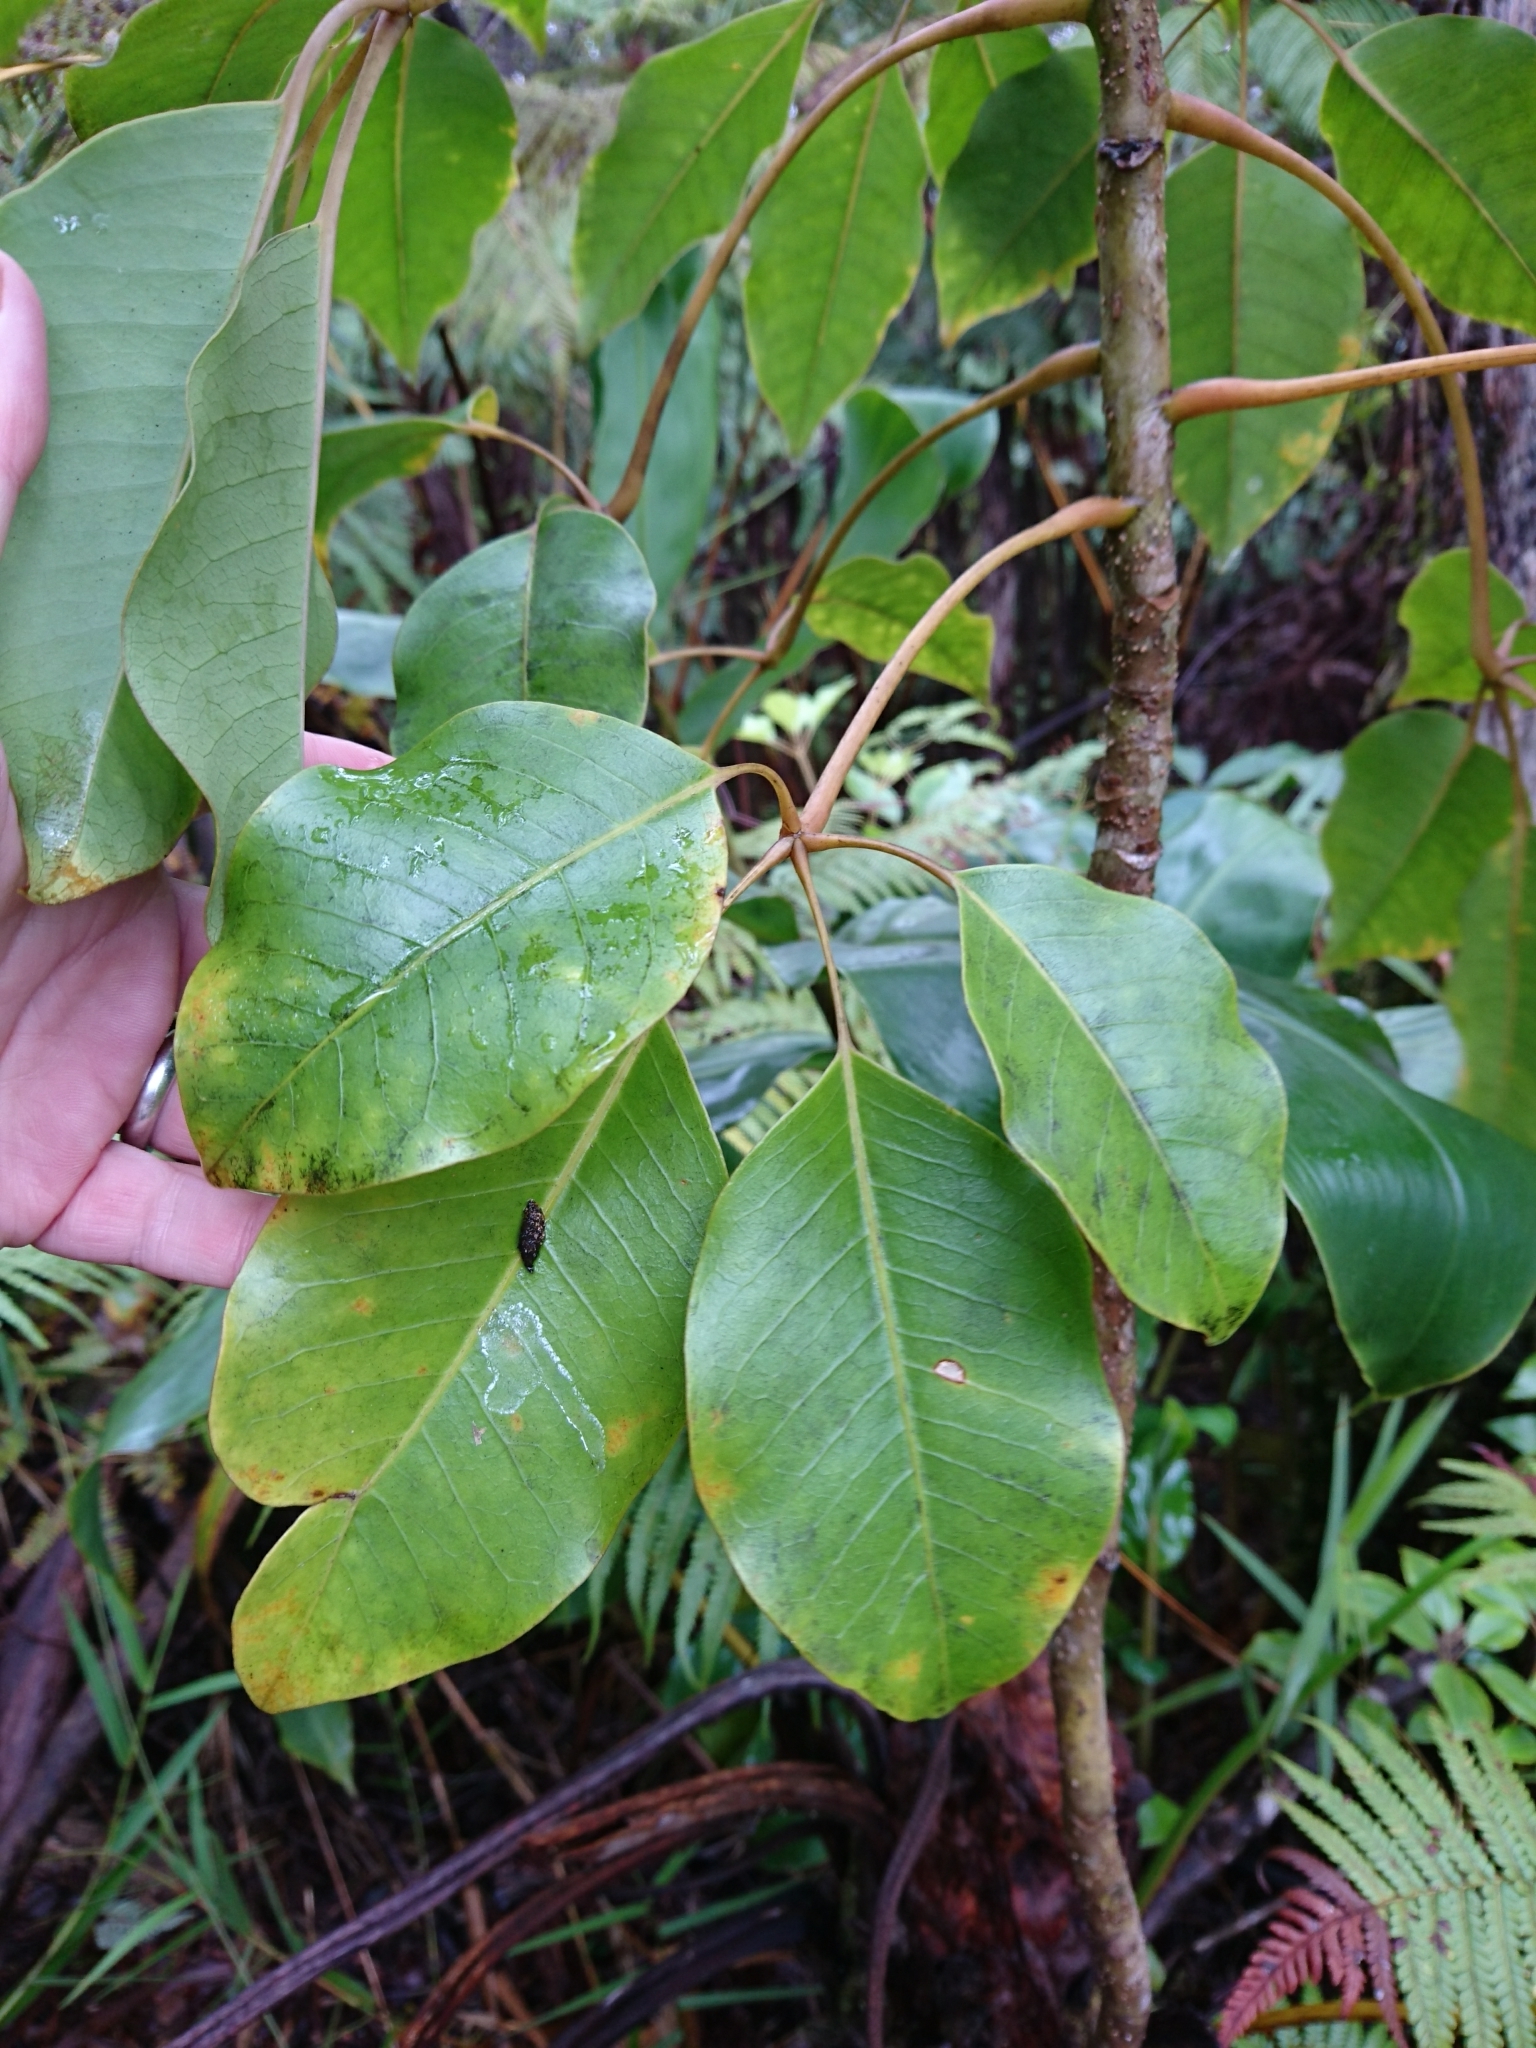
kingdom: Plantae
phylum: Tracheophyta
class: Magnoliopsida
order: Apiales
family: Araliaceae
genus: Cheirodendron
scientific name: Cheirodendron trigynum
